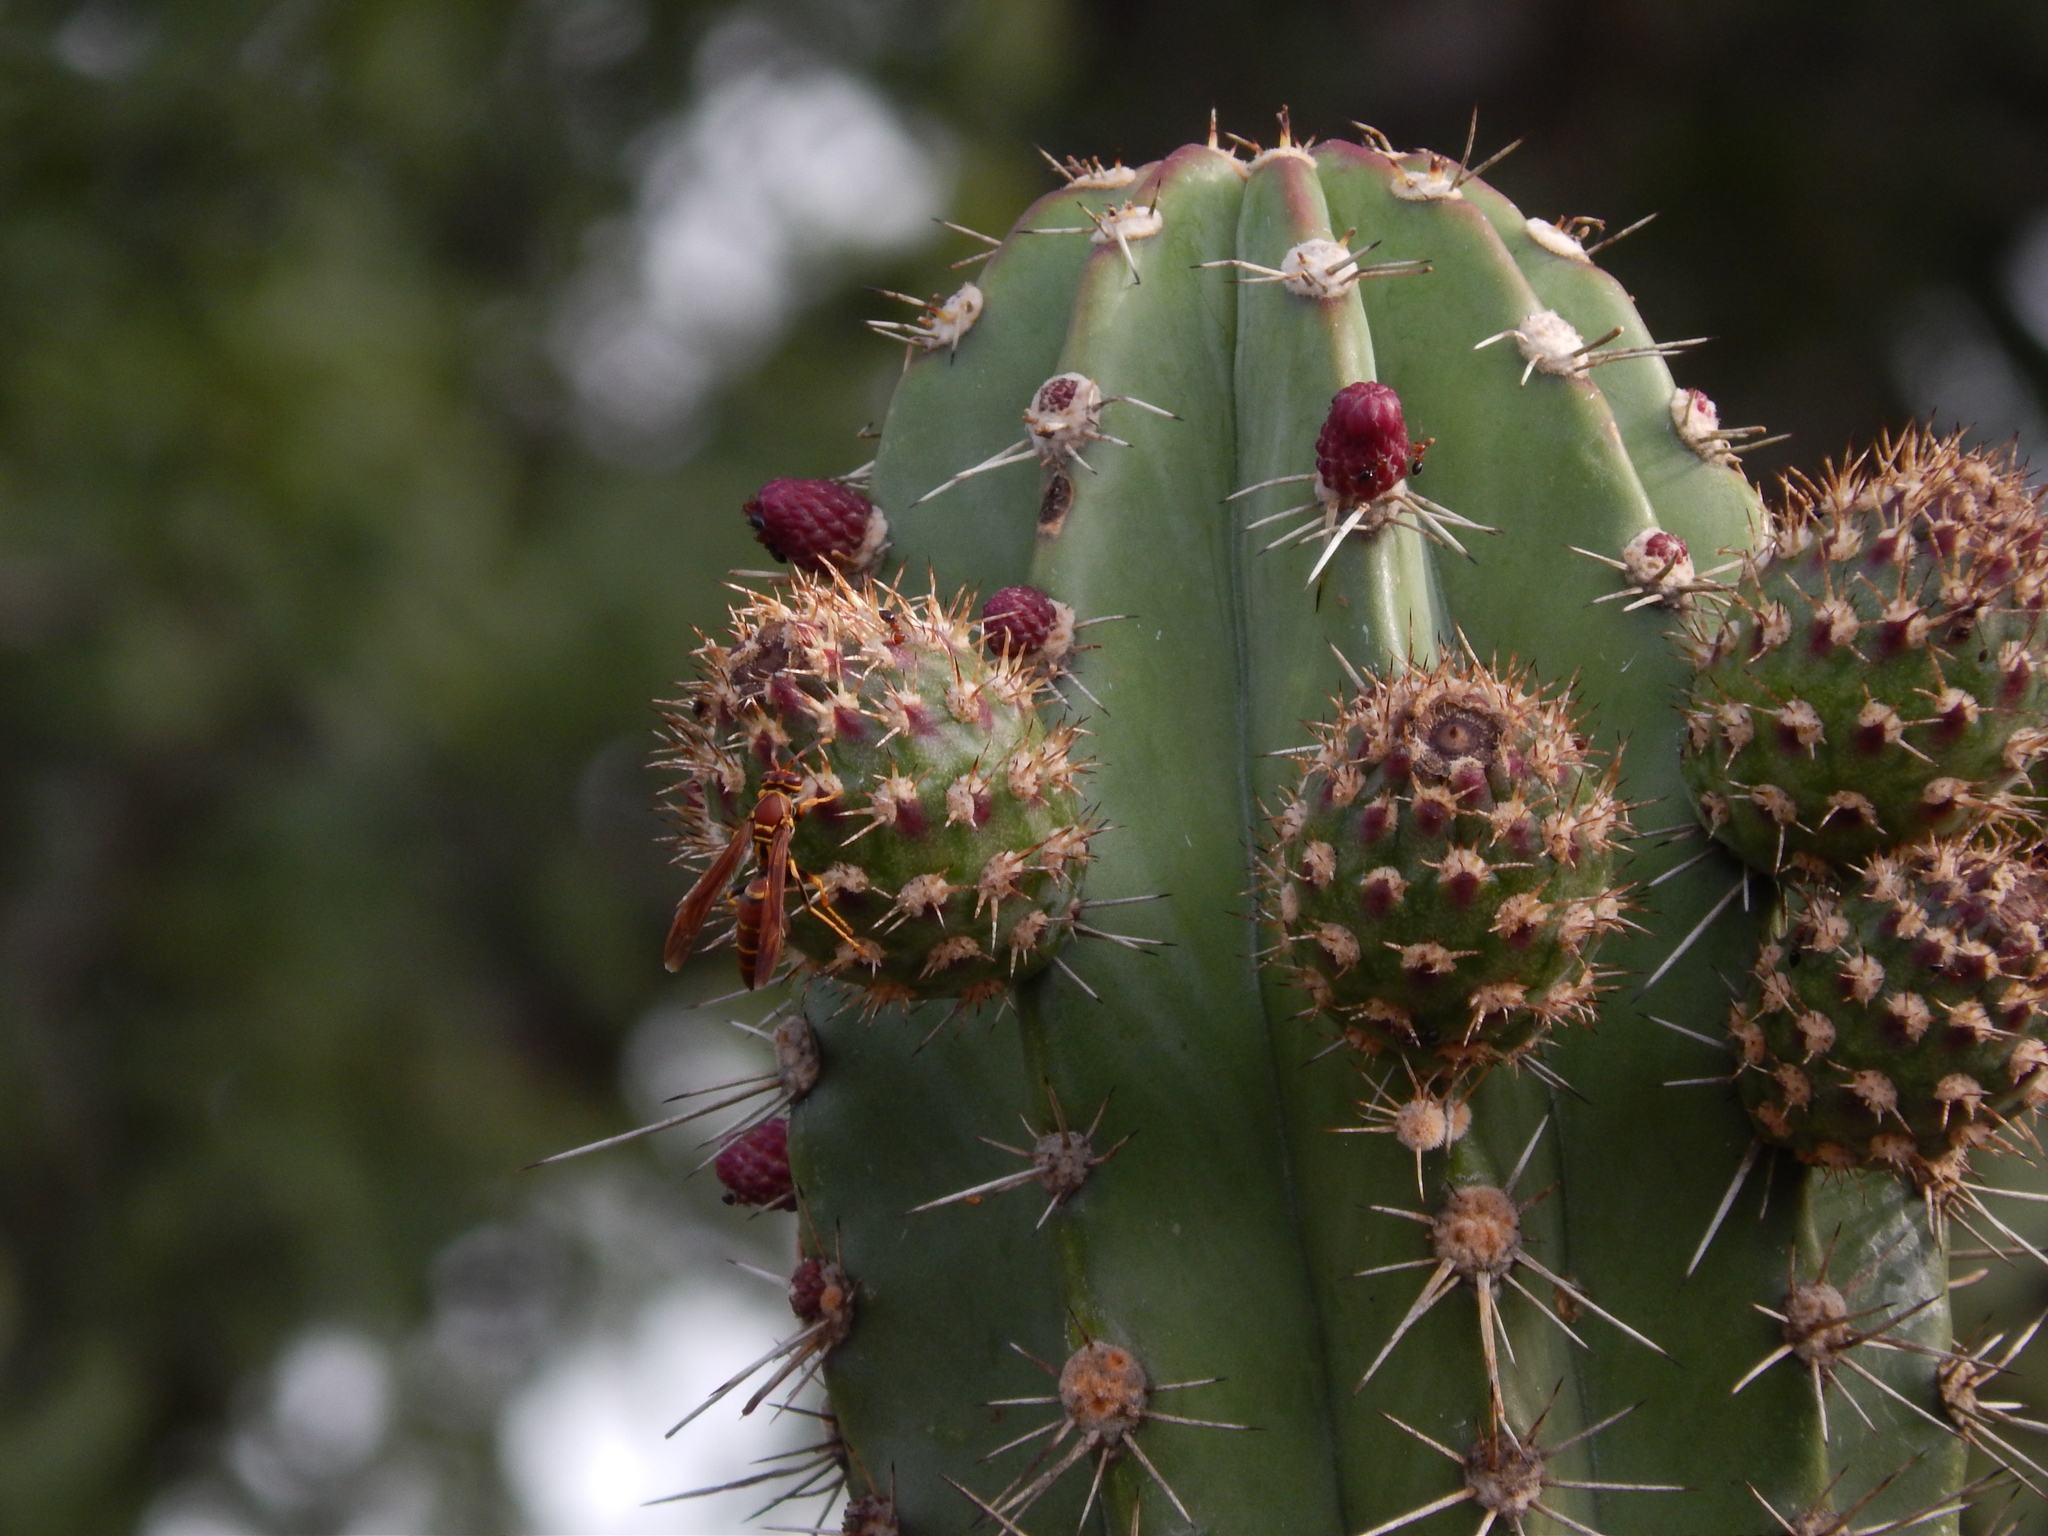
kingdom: Plantae
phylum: Tracheophyta
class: Magnoliopsida
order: Caryophyllales
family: Cactaceae
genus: Stenocereus
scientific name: Stenocereus huastecorum
